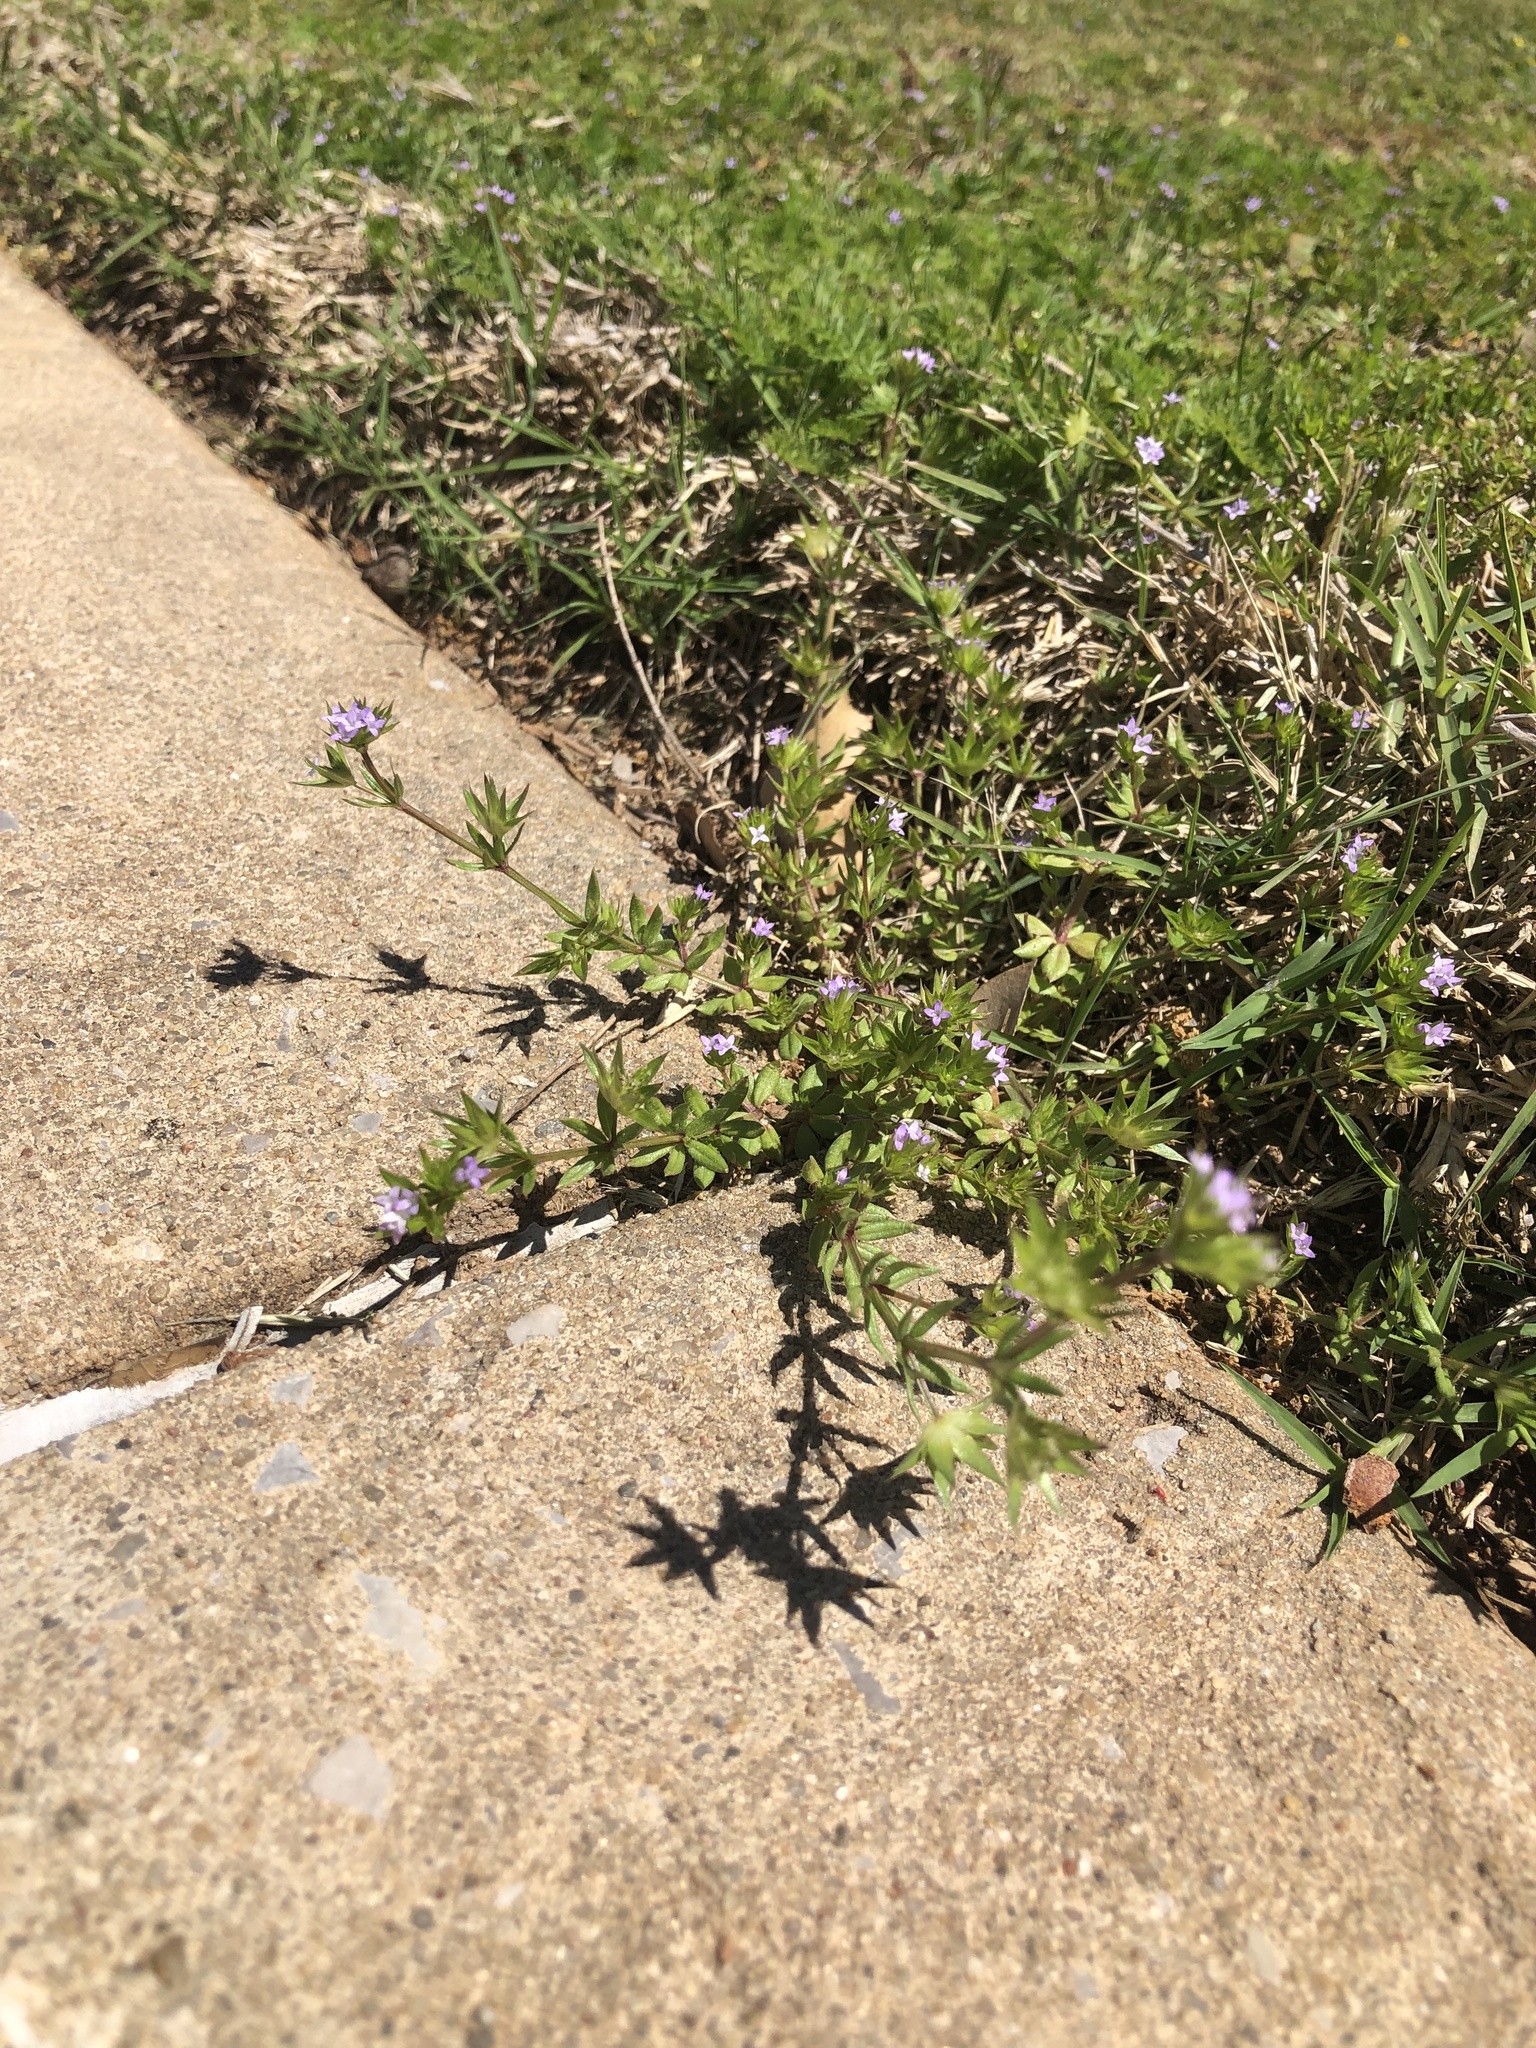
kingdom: Plantae
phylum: Tracheophyta
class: Magnoliopsida
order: Gentianales
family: Rubiaceae
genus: Sherardia
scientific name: Sherardia arvensis
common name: Field madder
